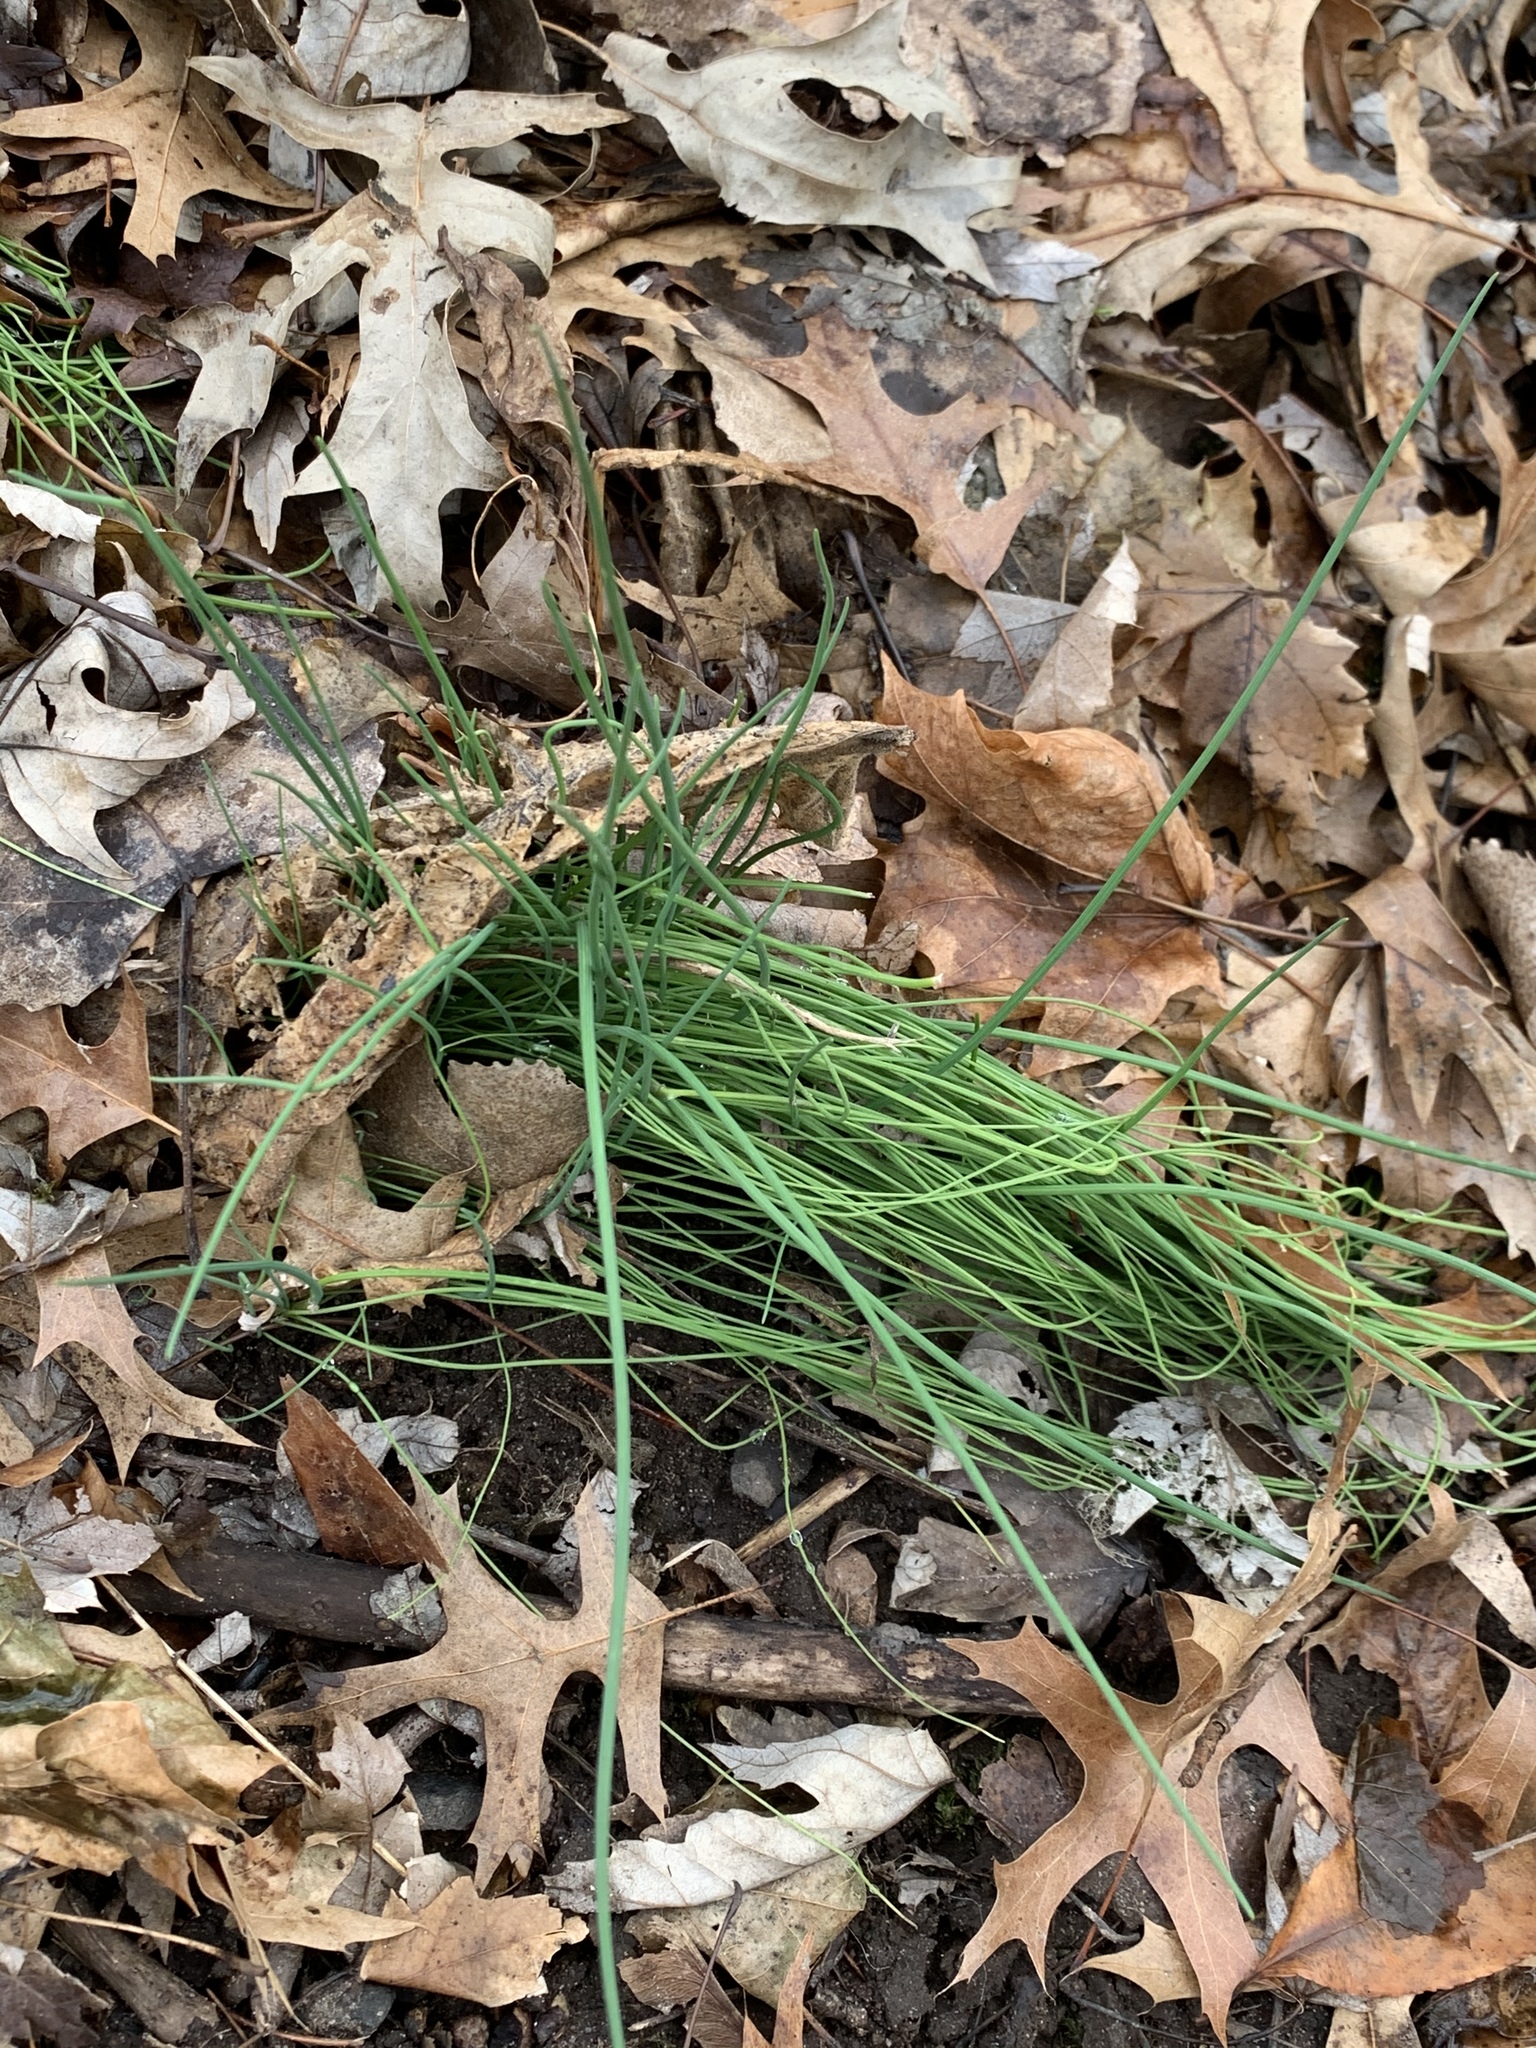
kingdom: Plantae
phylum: Tracheophyta
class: Liliopsida
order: Asparagales
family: Amaryllidaceae
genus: Allium
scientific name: Allium vineale
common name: Crow garlic
